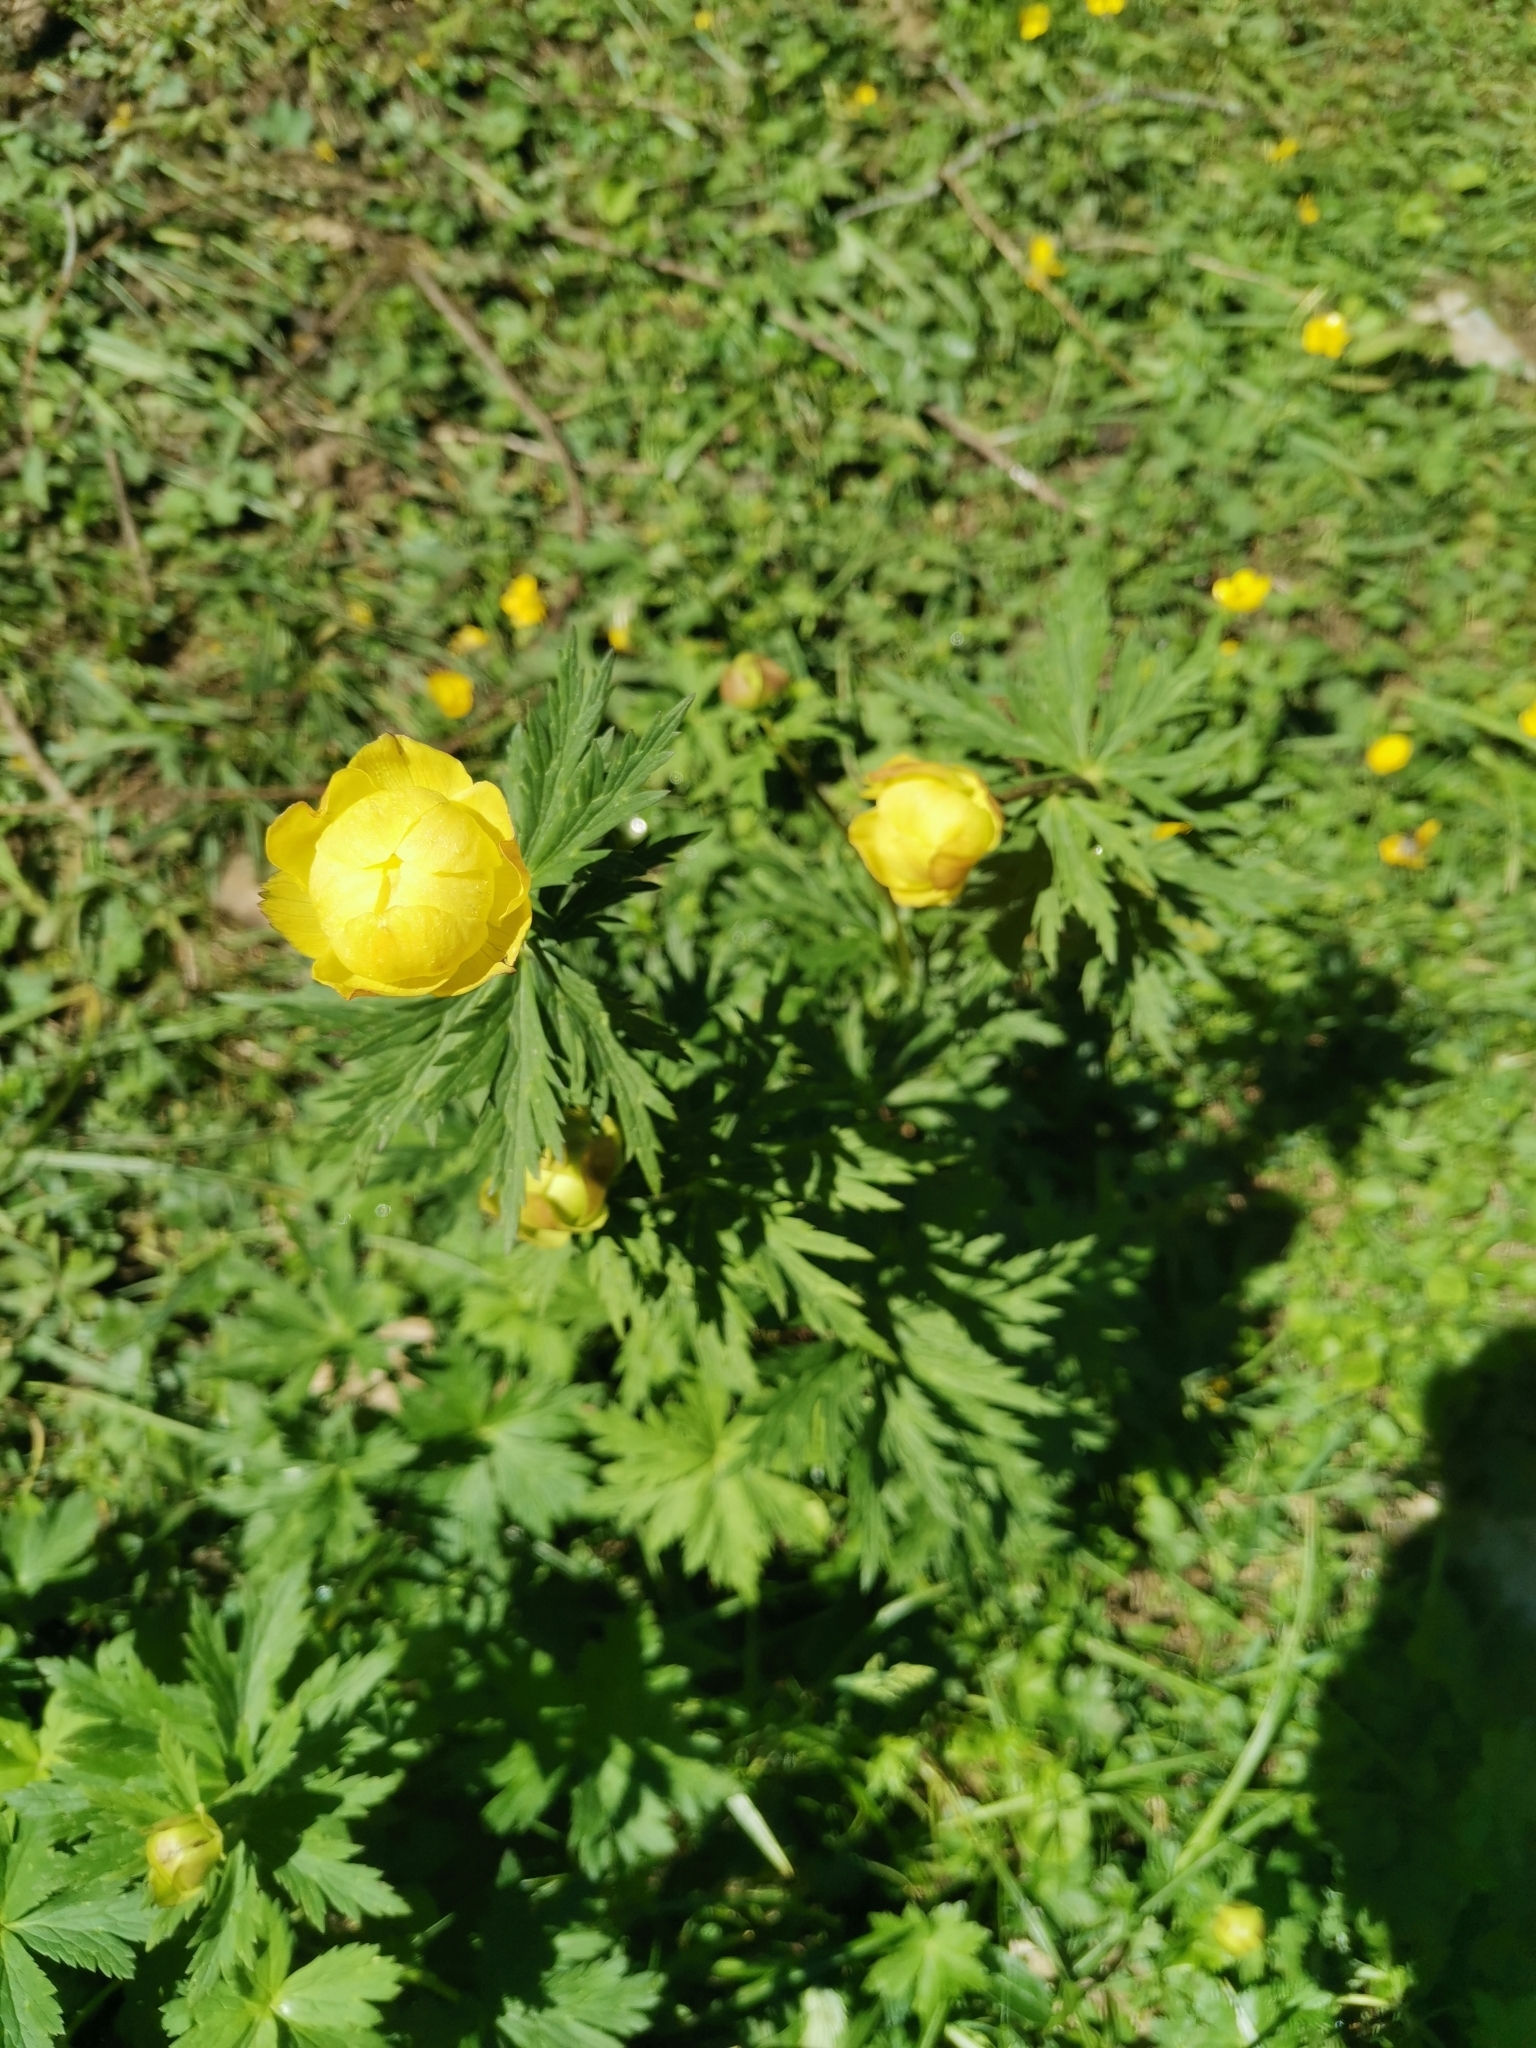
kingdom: Plantae
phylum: Tracheophyta
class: Magnoliopsida
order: Ranunculales
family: Ranunculaceae
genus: Trollius
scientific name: Trollius europaeus
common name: European globeflower
